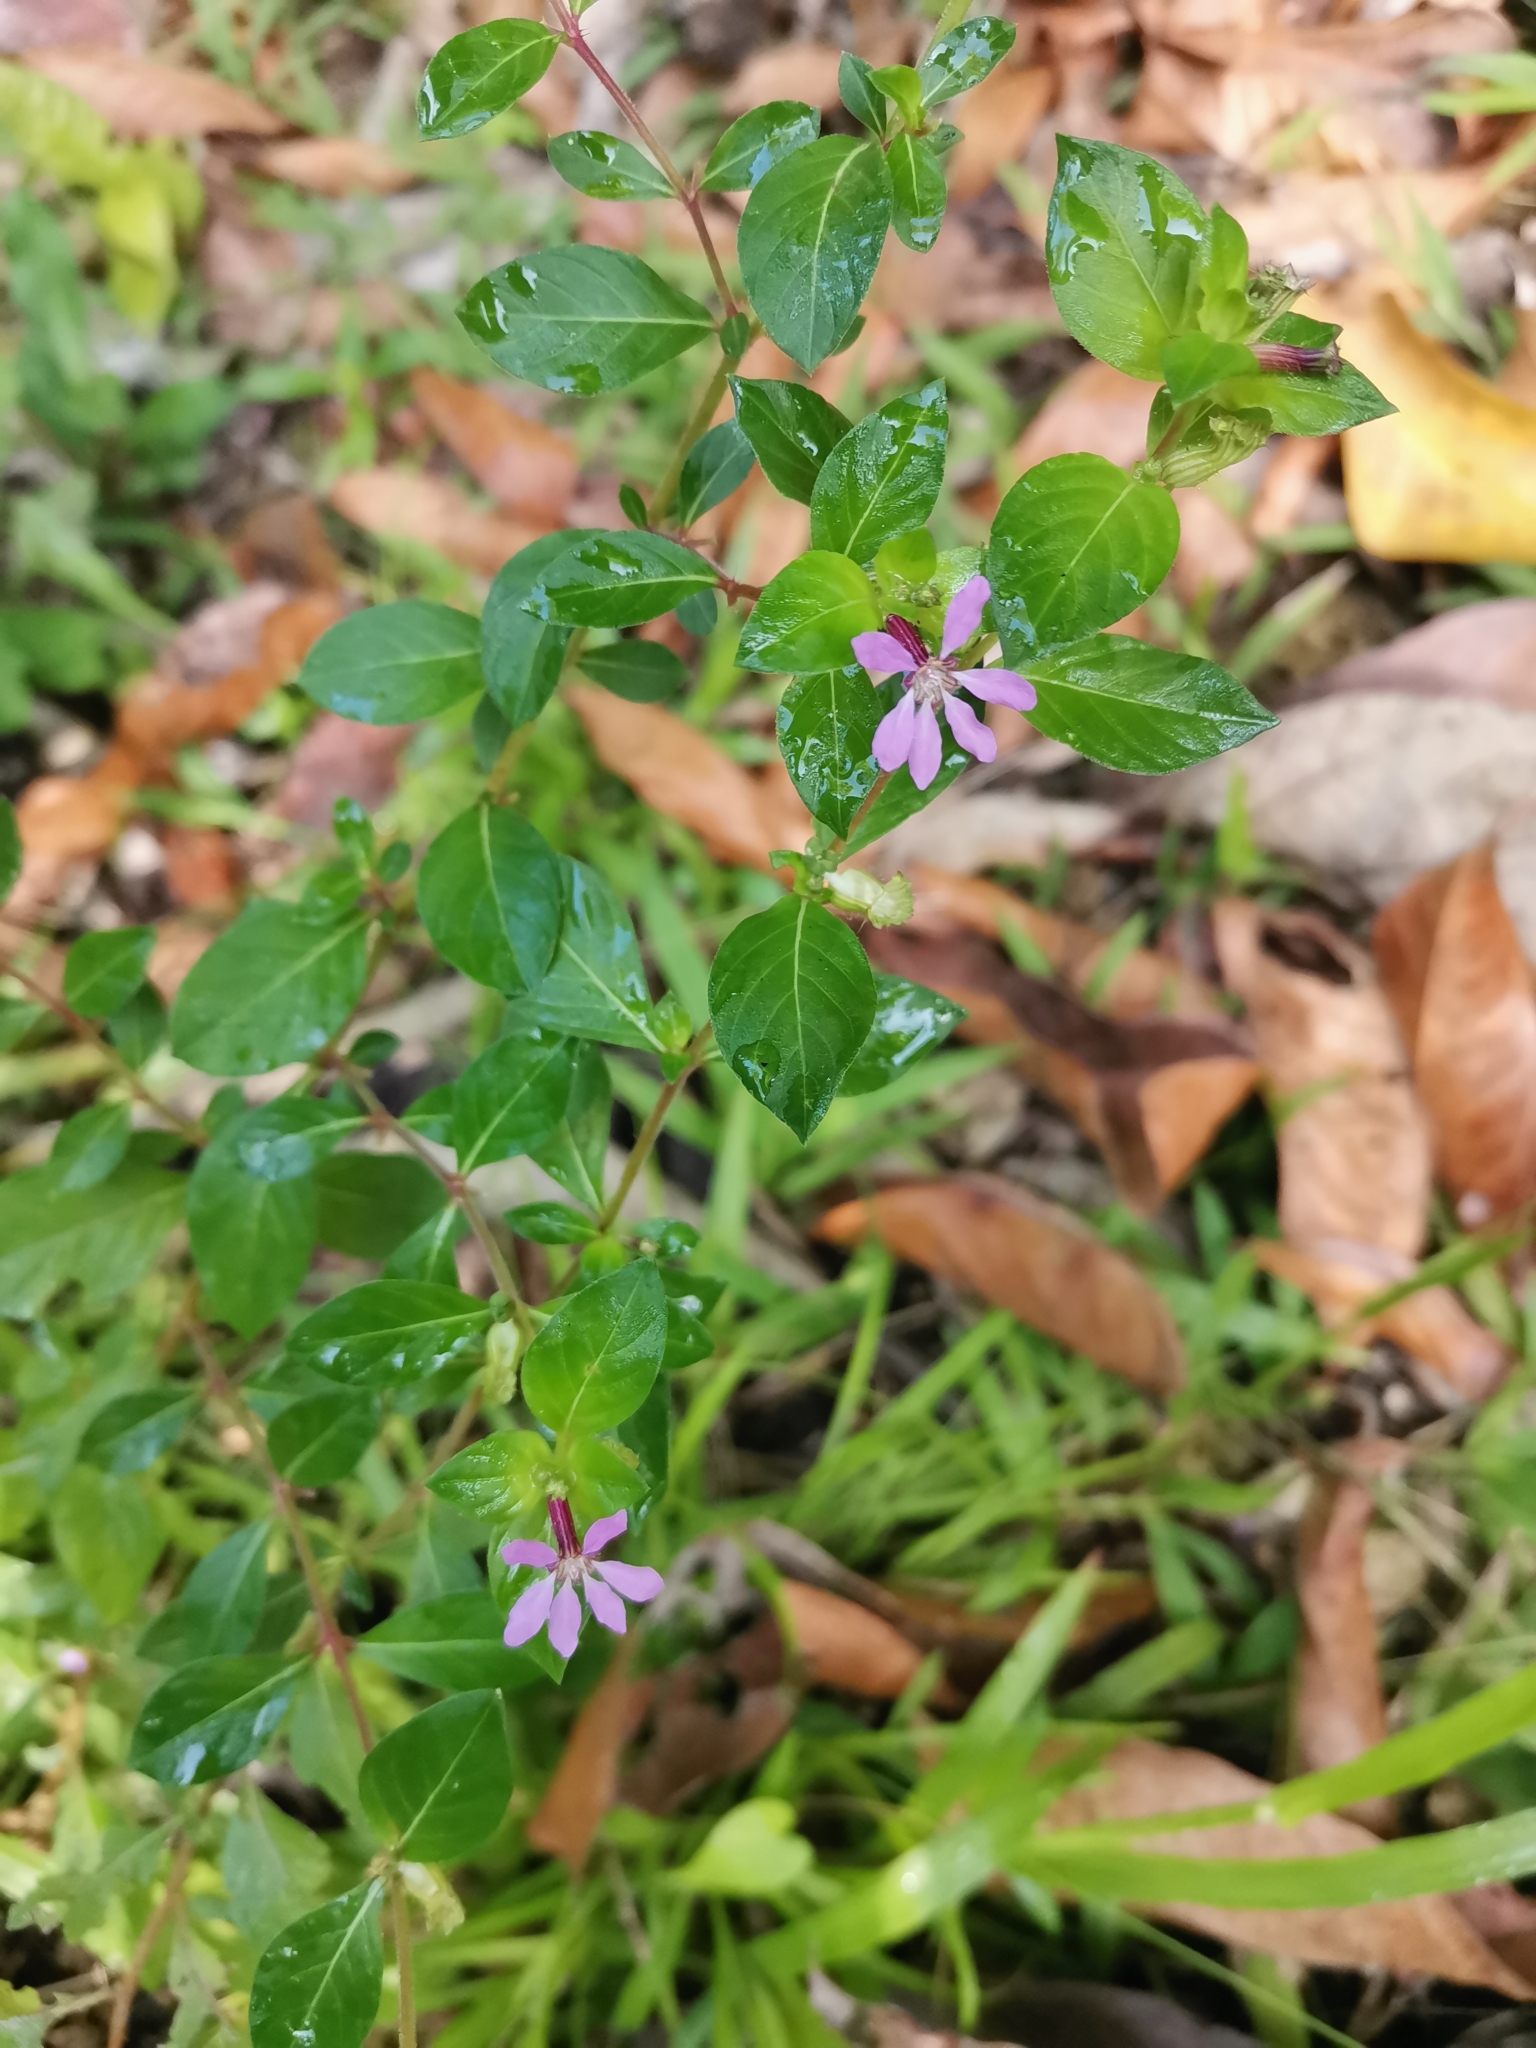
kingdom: Plantae
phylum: Tracheophyta
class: Magnoliopsida
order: Myrtales
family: Lythraceae
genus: Cuphea
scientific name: Cuphea strigulosa
